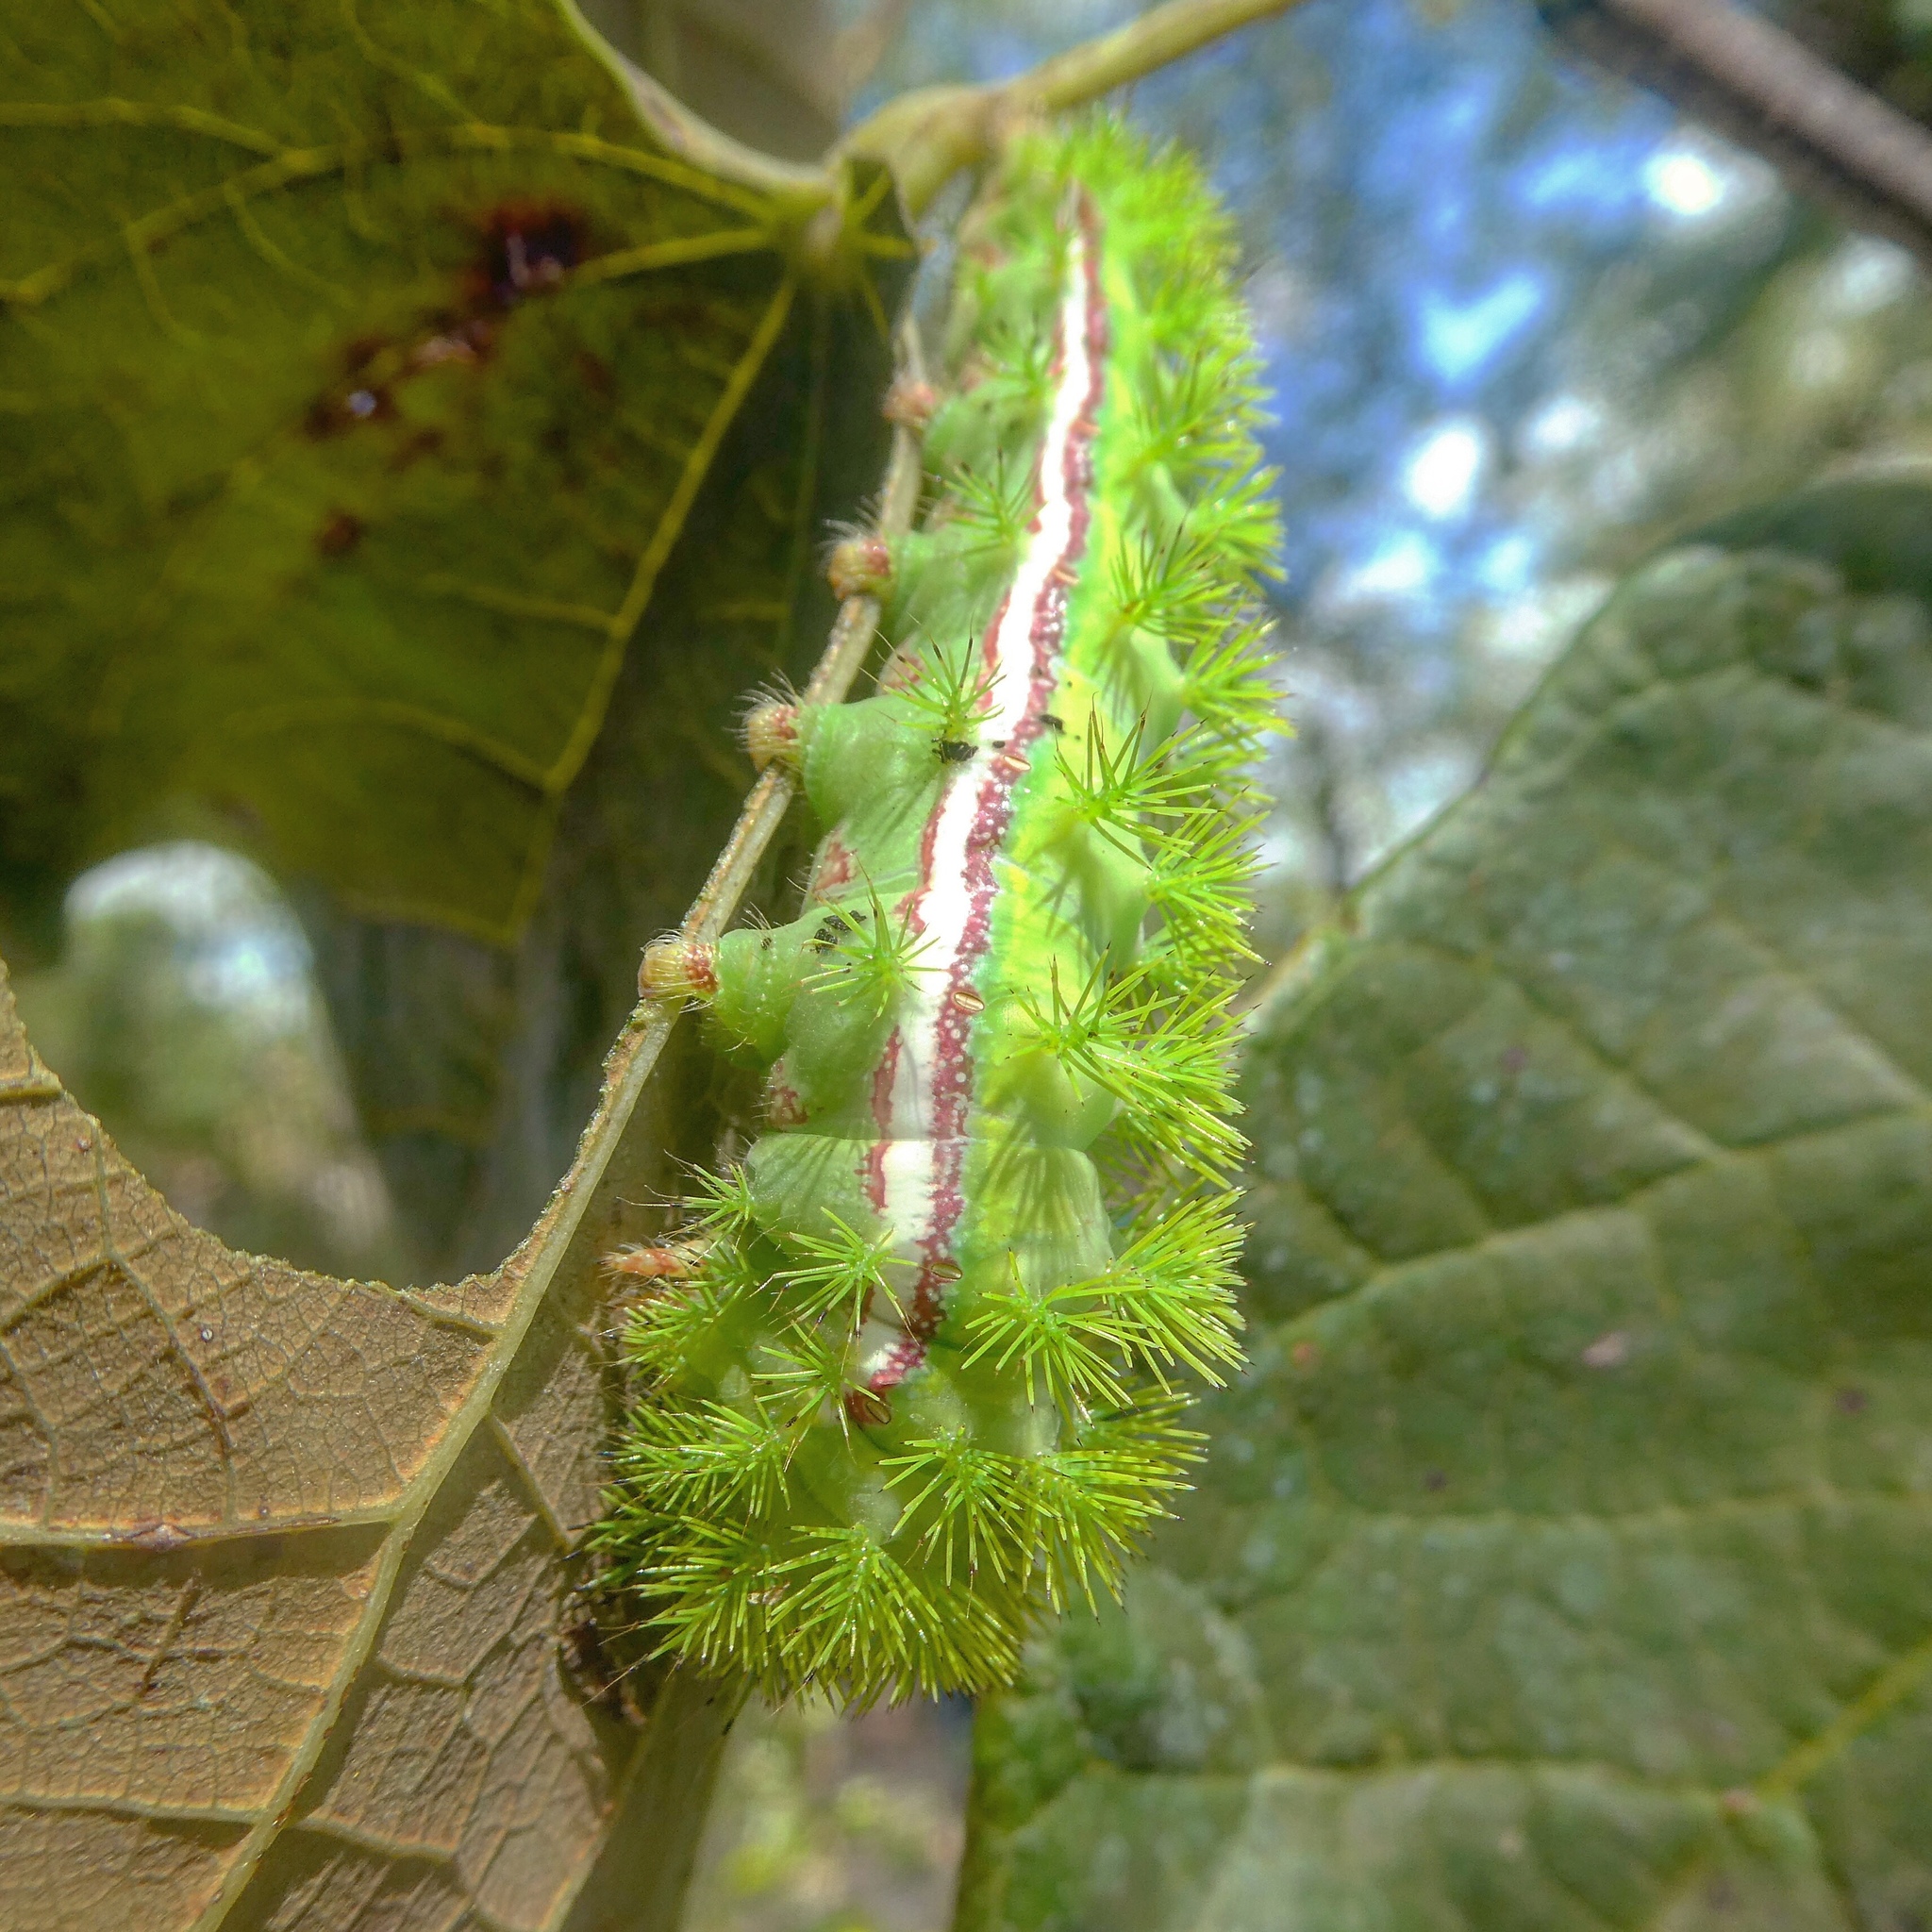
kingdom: Animalia
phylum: Arthropoda
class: Insecta
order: Lepidoptera
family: Saturniidae
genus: Automeris
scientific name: Automeris io
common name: Io moth
